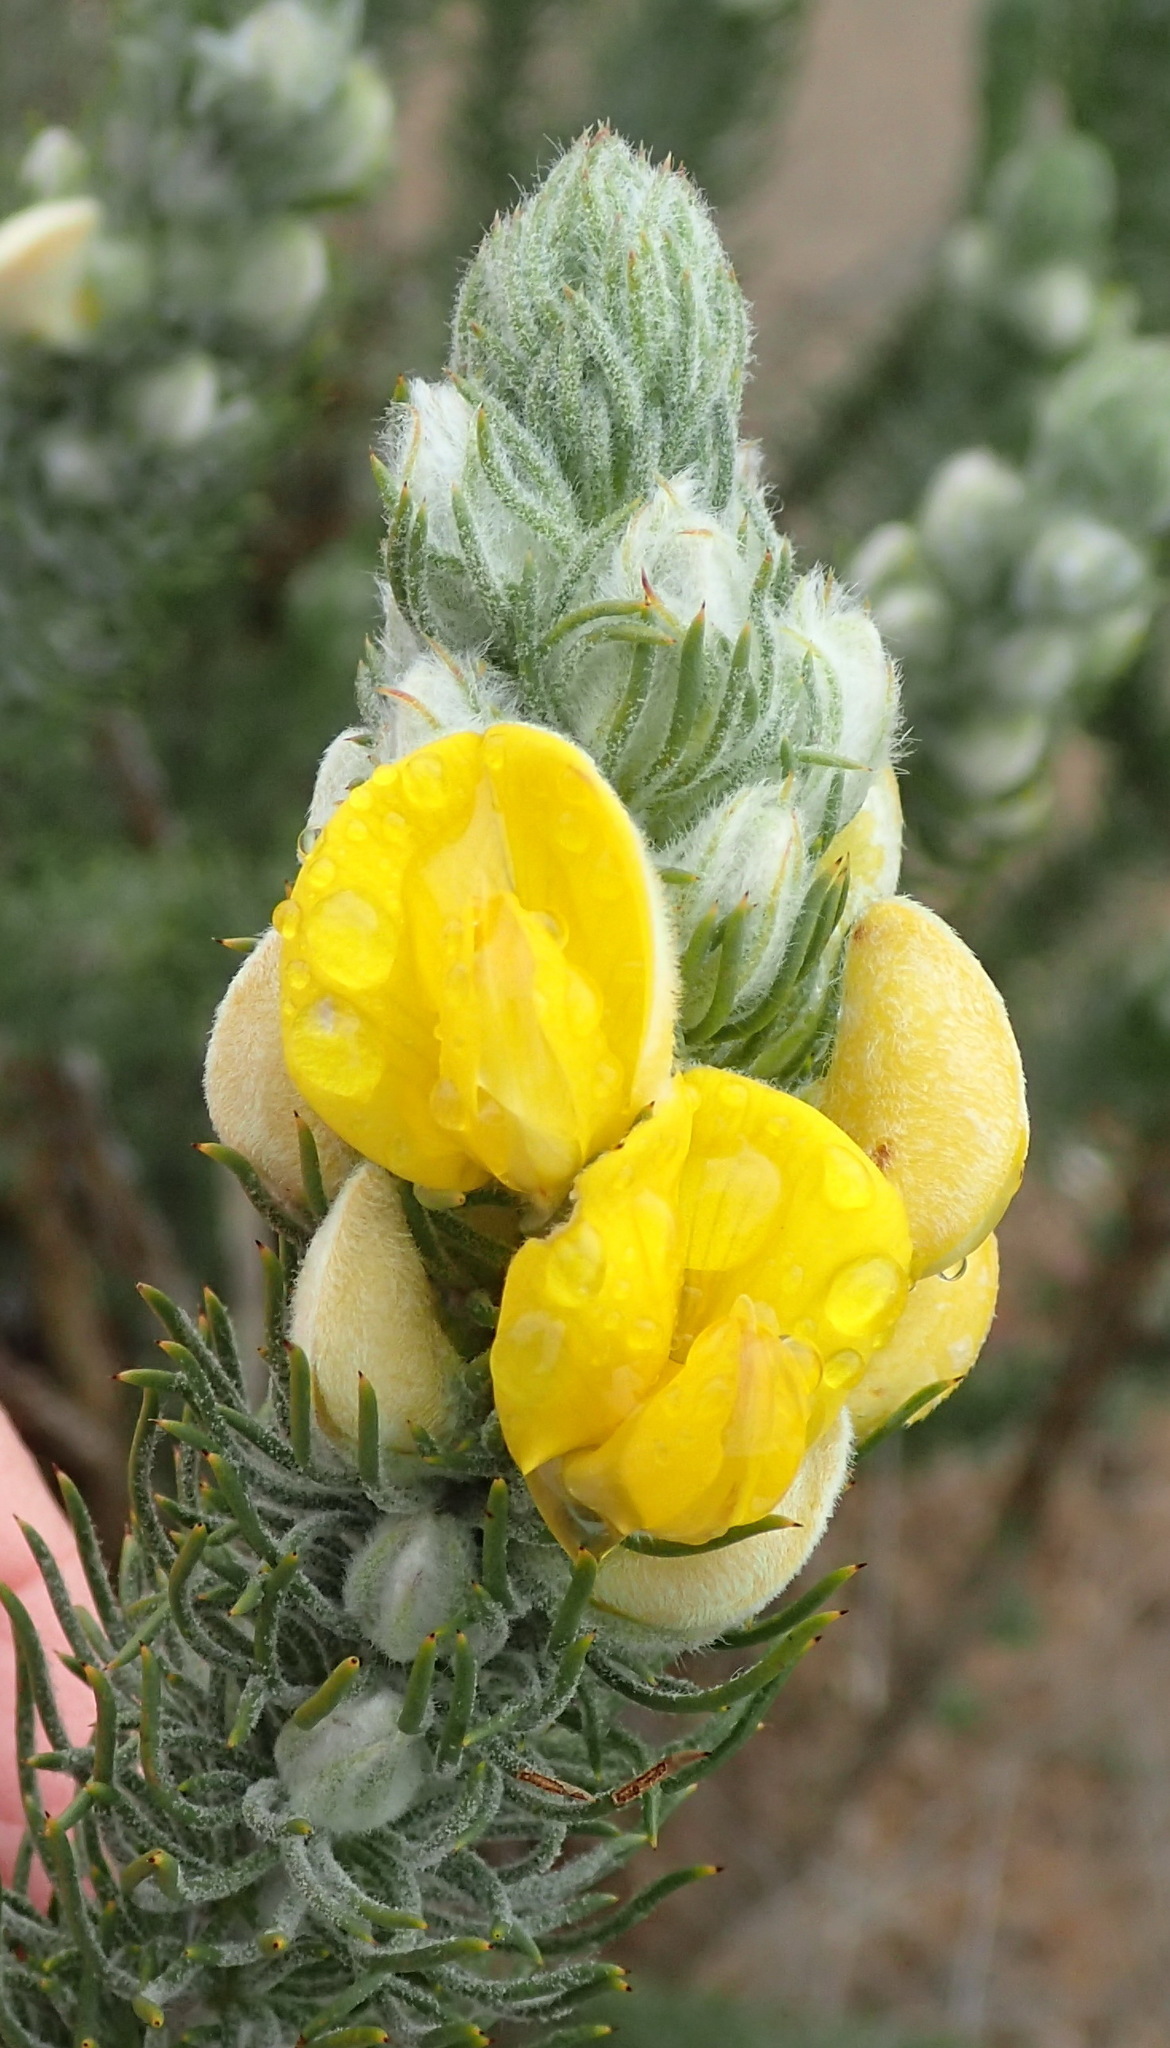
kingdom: Plantae
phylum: Tracheophyta
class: Magnoliopsida
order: Fabales
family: Fabaceae
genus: Aspalathus
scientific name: Aspalathus shawii
